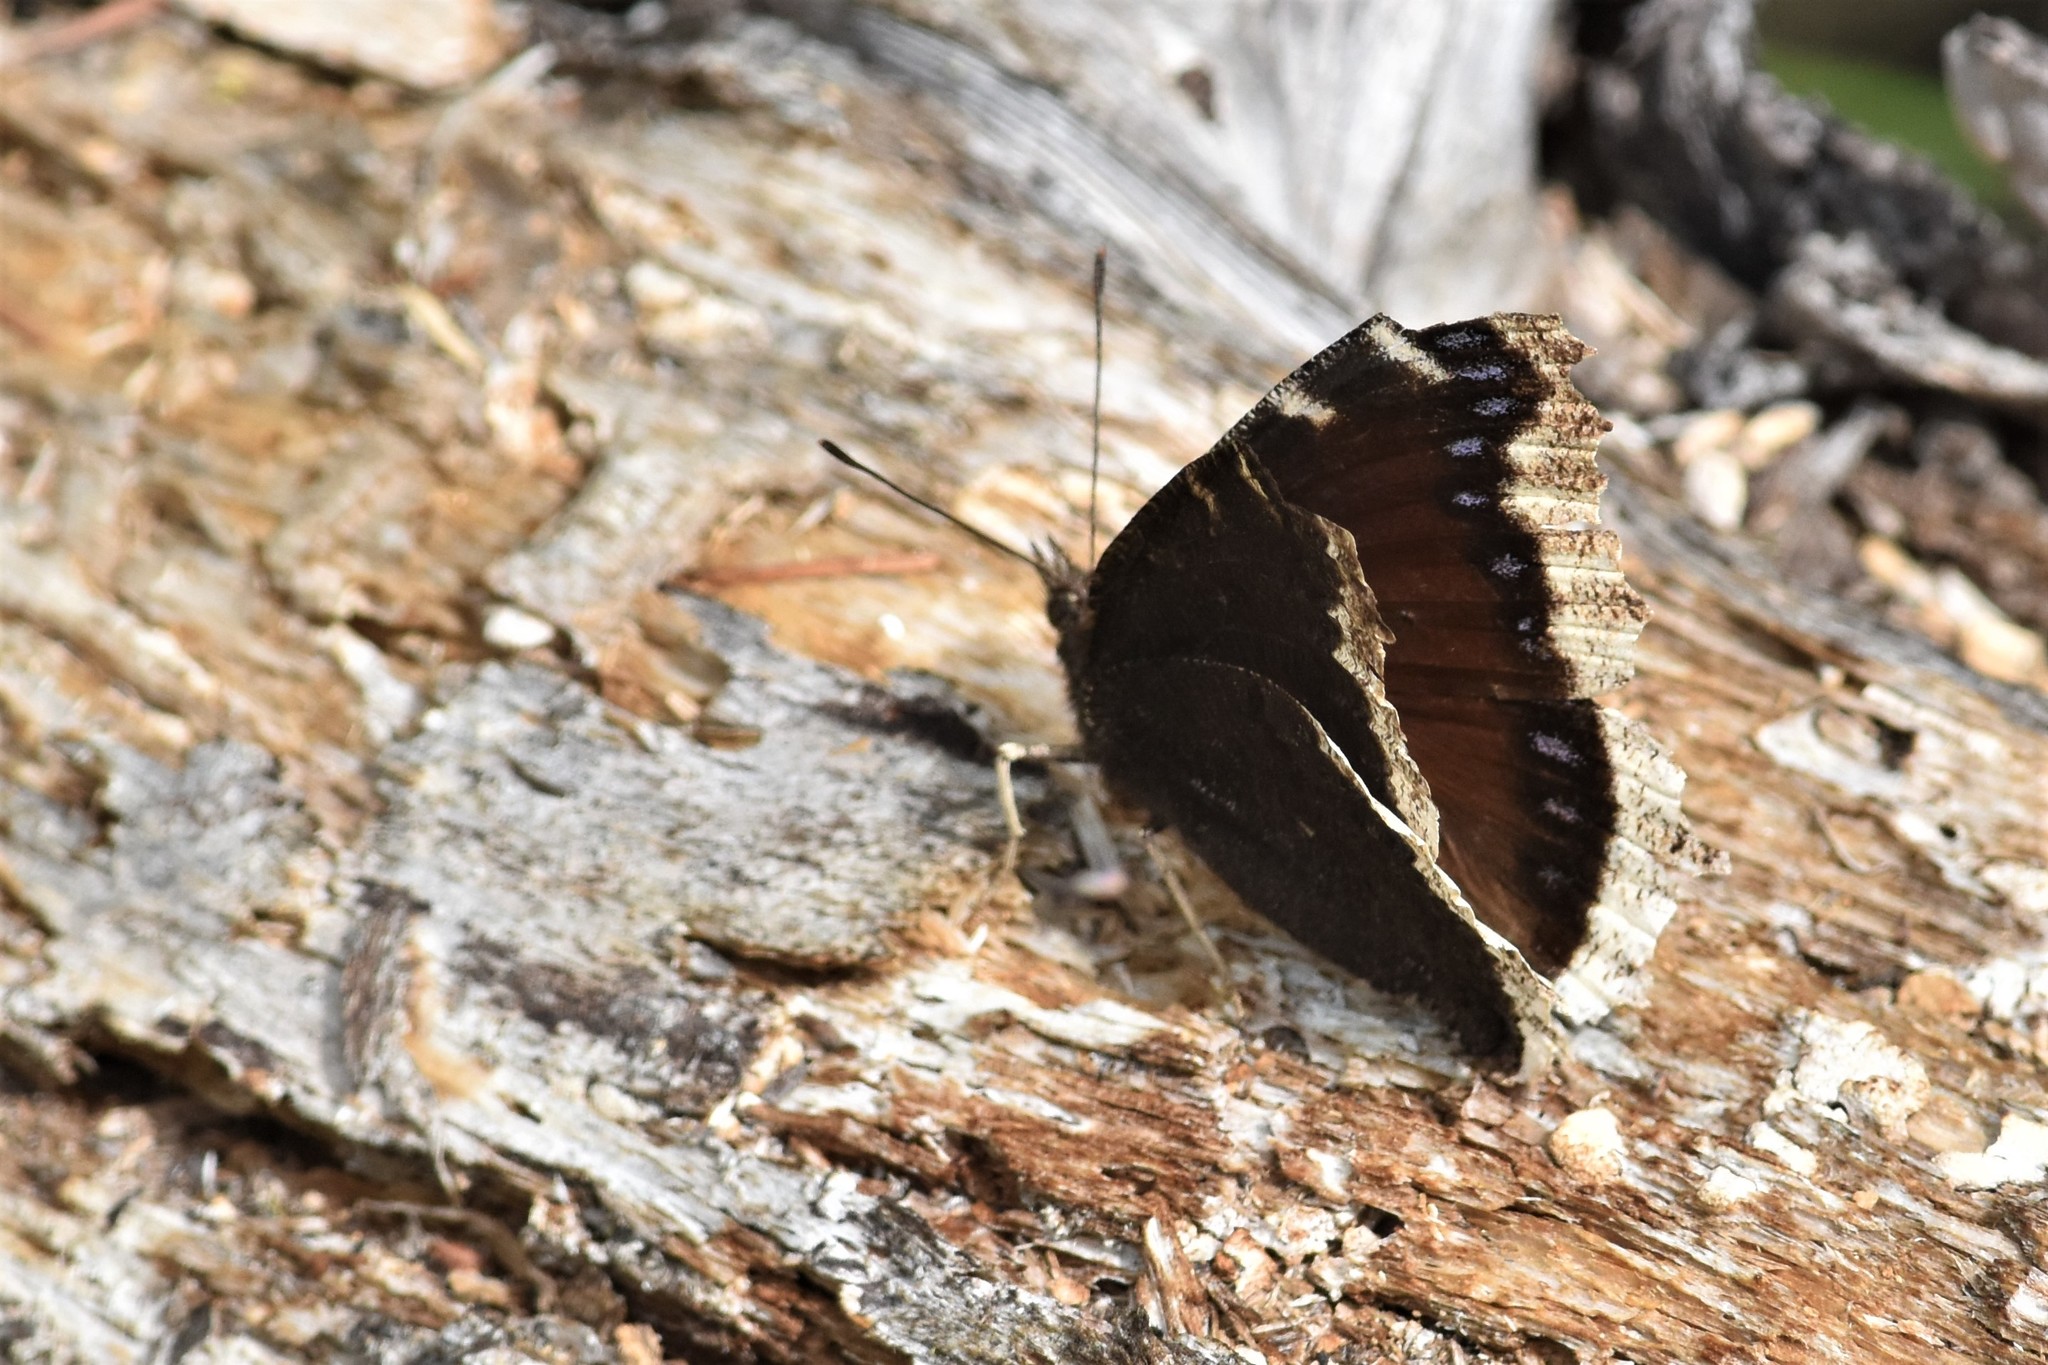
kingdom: Animalia
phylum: Arthropoda
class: Insecta
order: Lepidoptera
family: Nymphalidae
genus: Nymphalis
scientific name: Nymphalis antiopa
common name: Camberwell beauty
